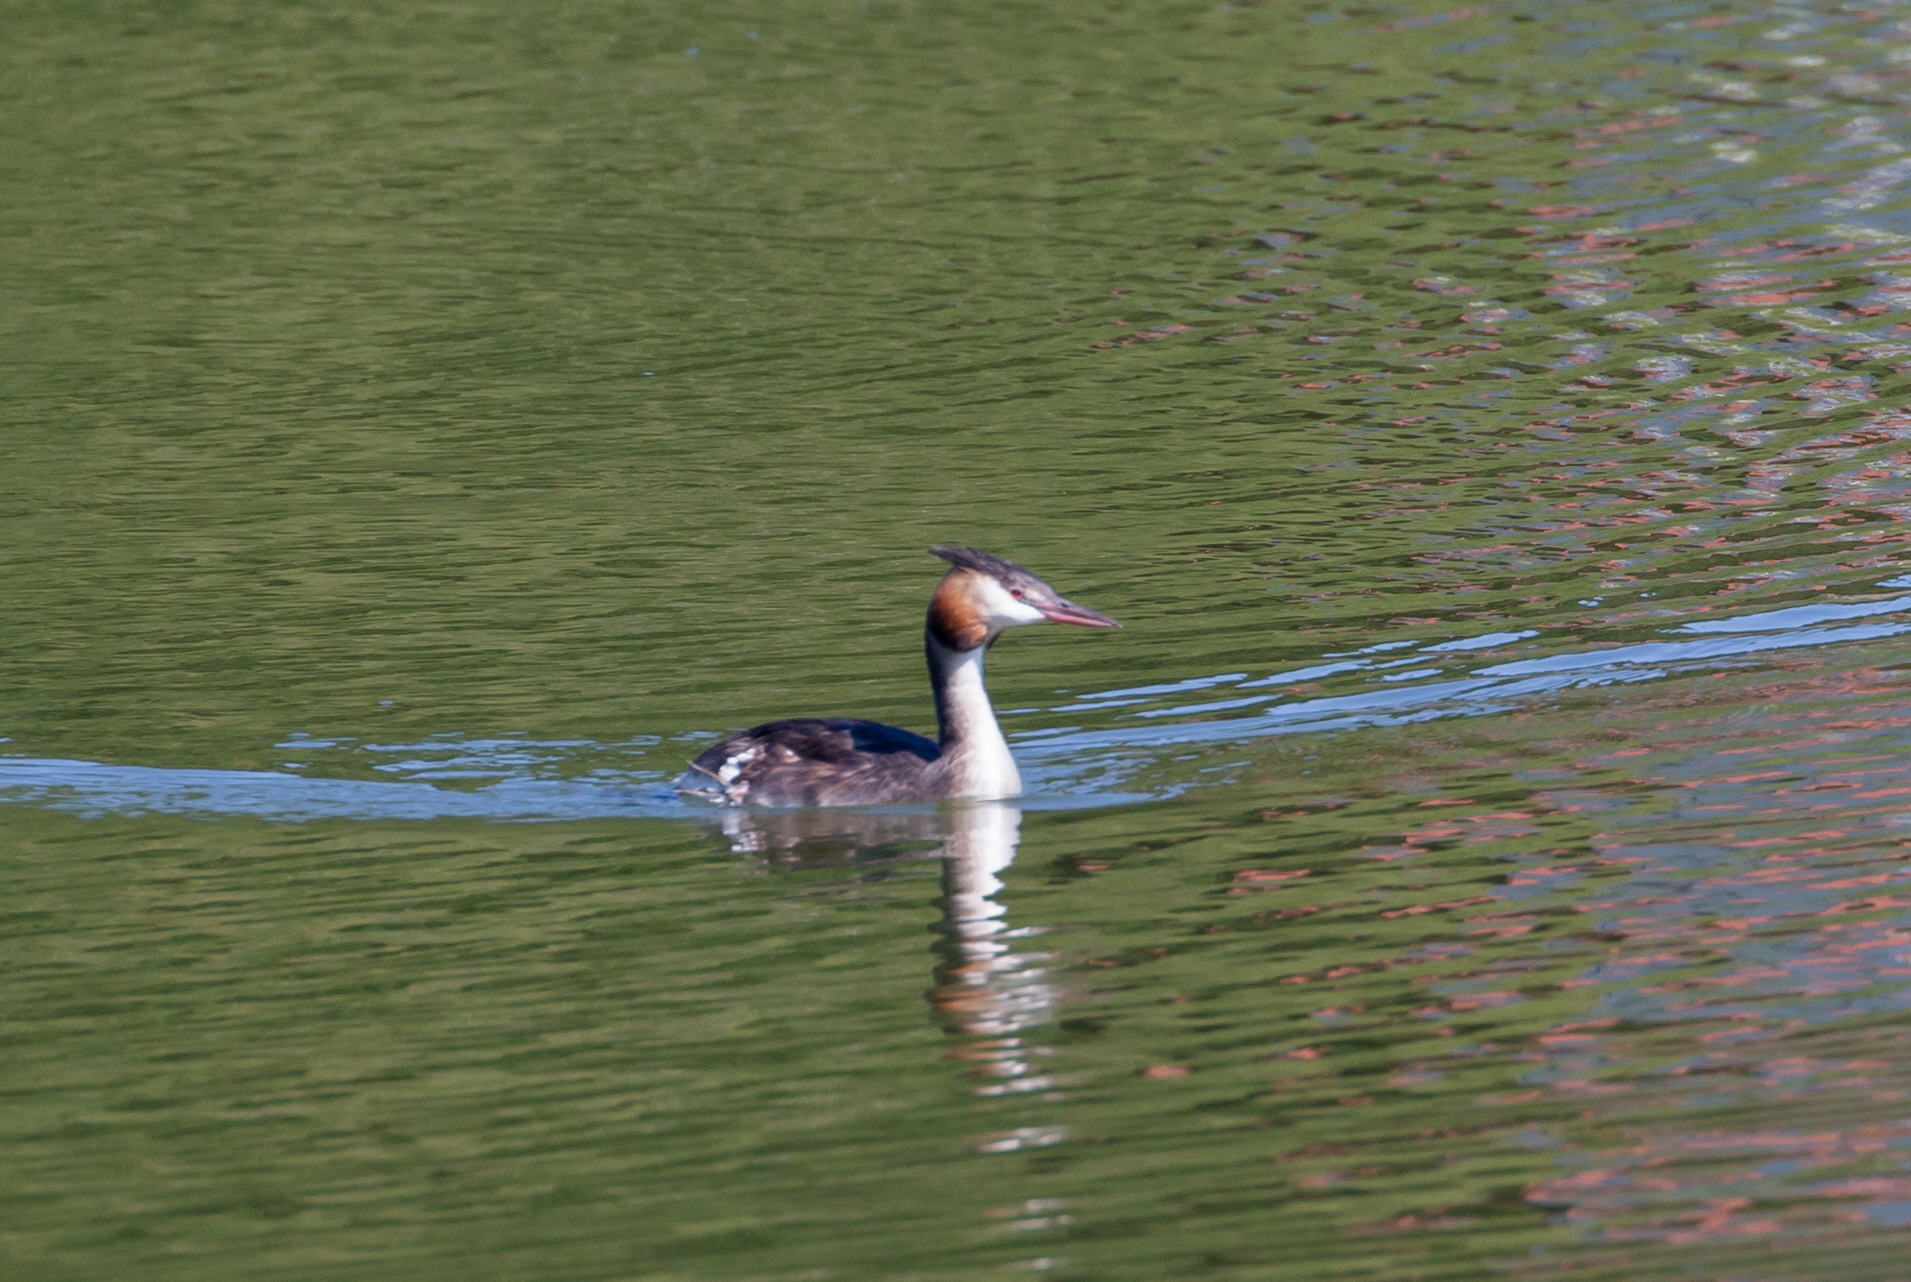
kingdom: Animalia
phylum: Chordata
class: Aves
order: Podicipediformes
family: Podicipedidae
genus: Podiceps
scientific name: Podiceps cristatus
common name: Great crested grebe
